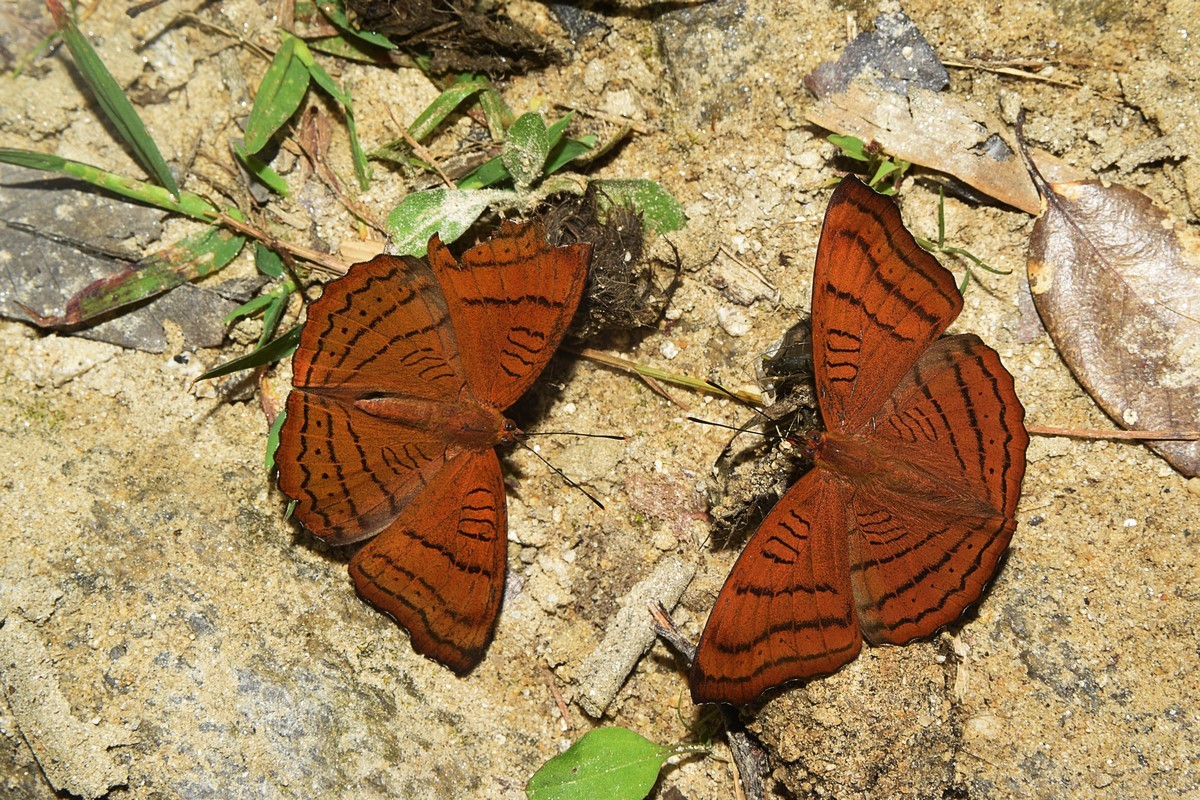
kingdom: Animalia
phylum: Arthropoda
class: Insecta
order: Lepidoptera
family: Nymphalidae
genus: Pseudergolis
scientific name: Pseudergolis wedah
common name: Tabby
